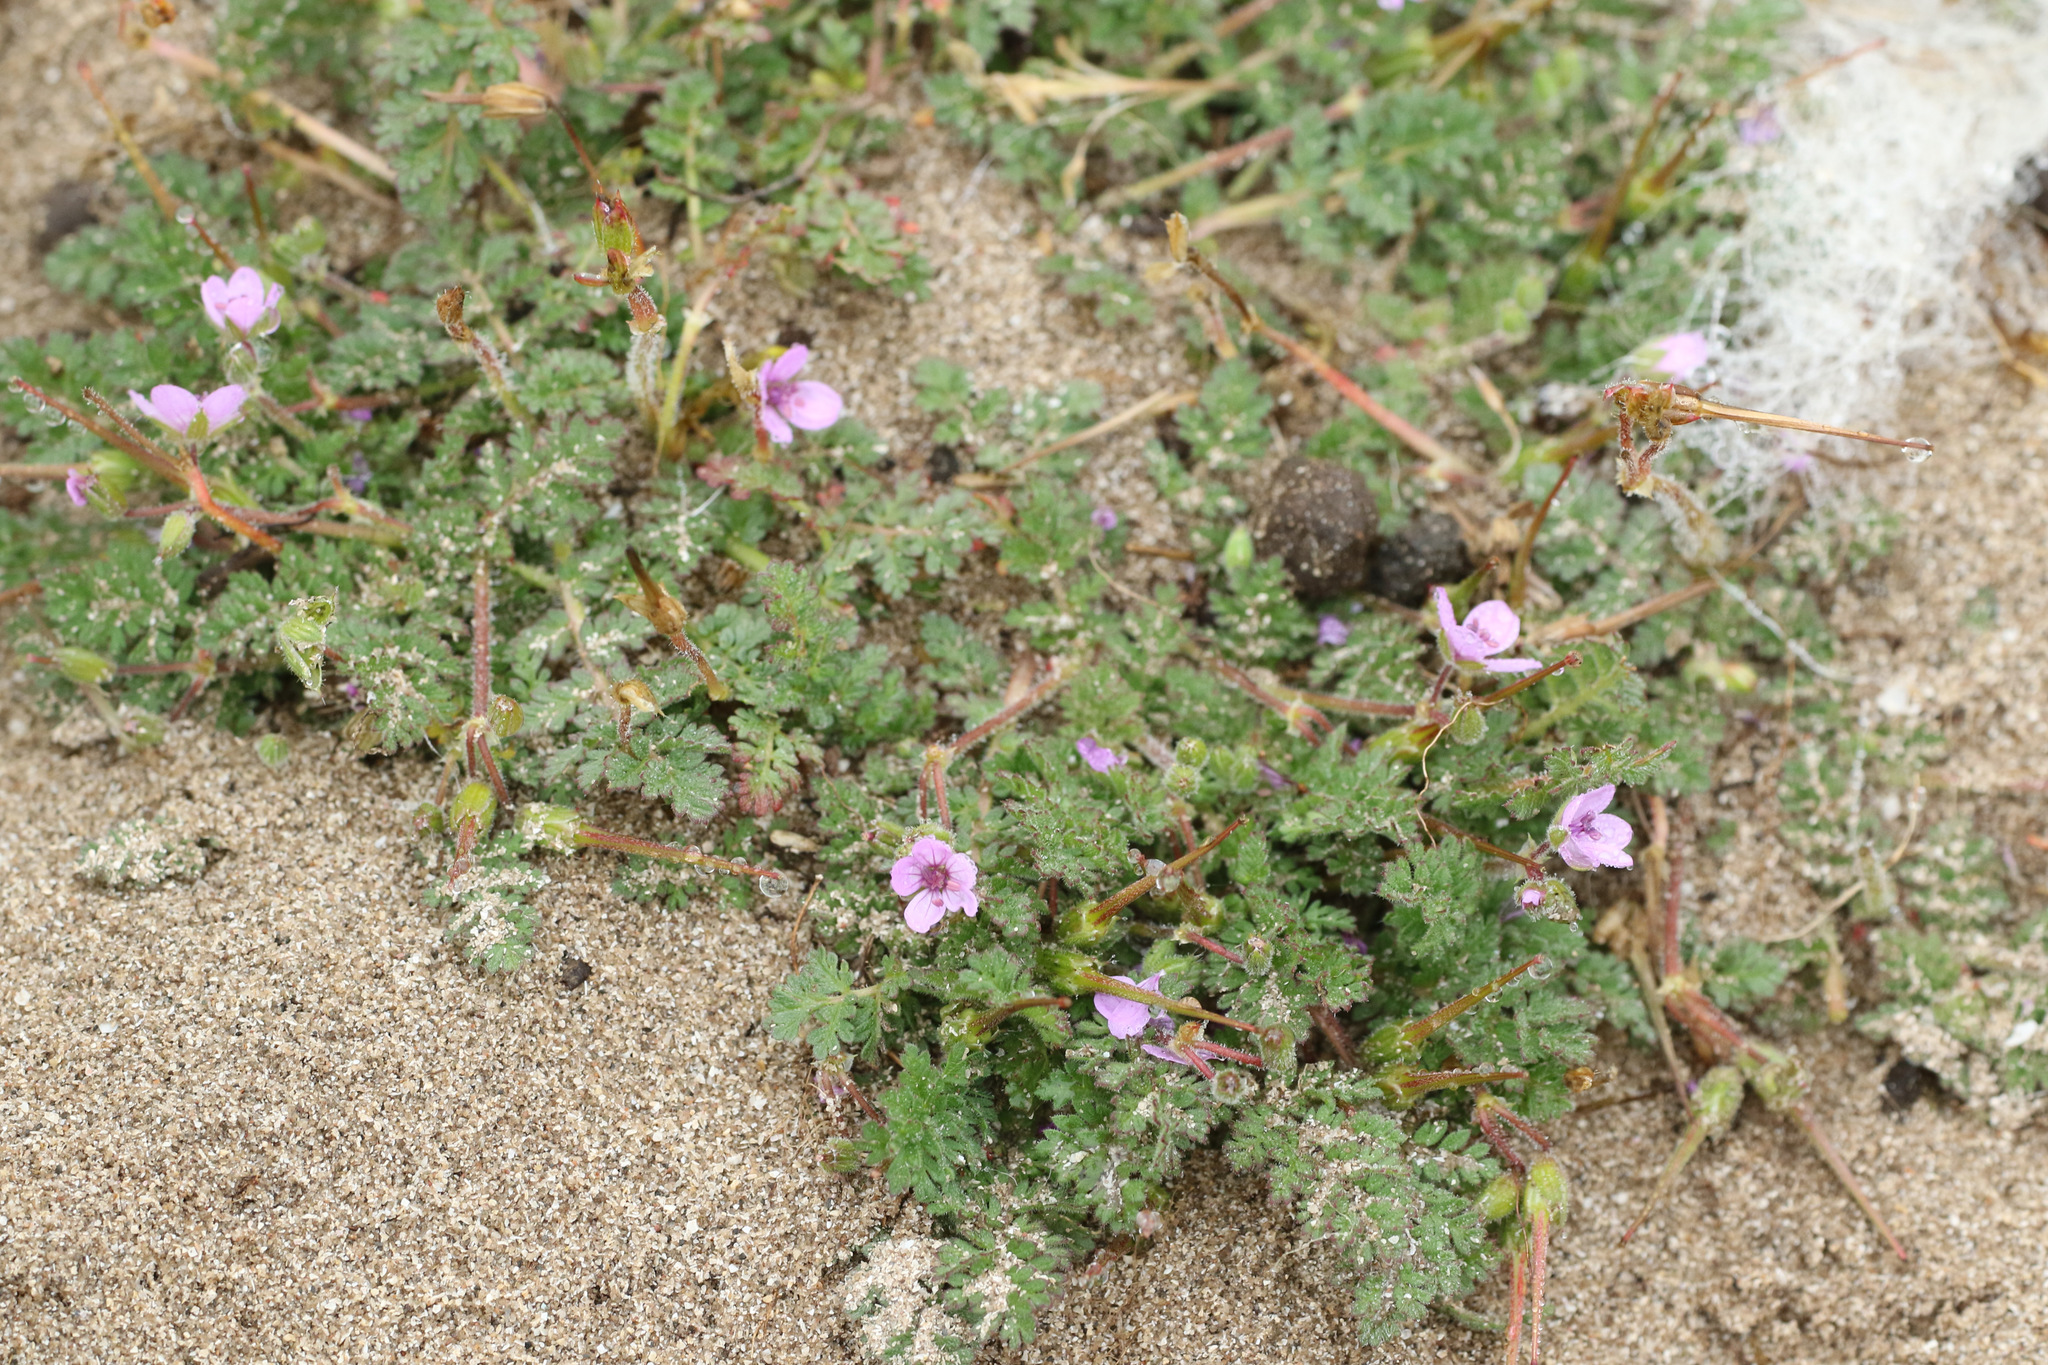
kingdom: Plantae
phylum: Tracheophyta
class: Magnoliopsida
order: Geraniales
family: Geraniaceae
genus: Erodium
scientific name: Erodium cicutarium
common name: Common stork's-bill
